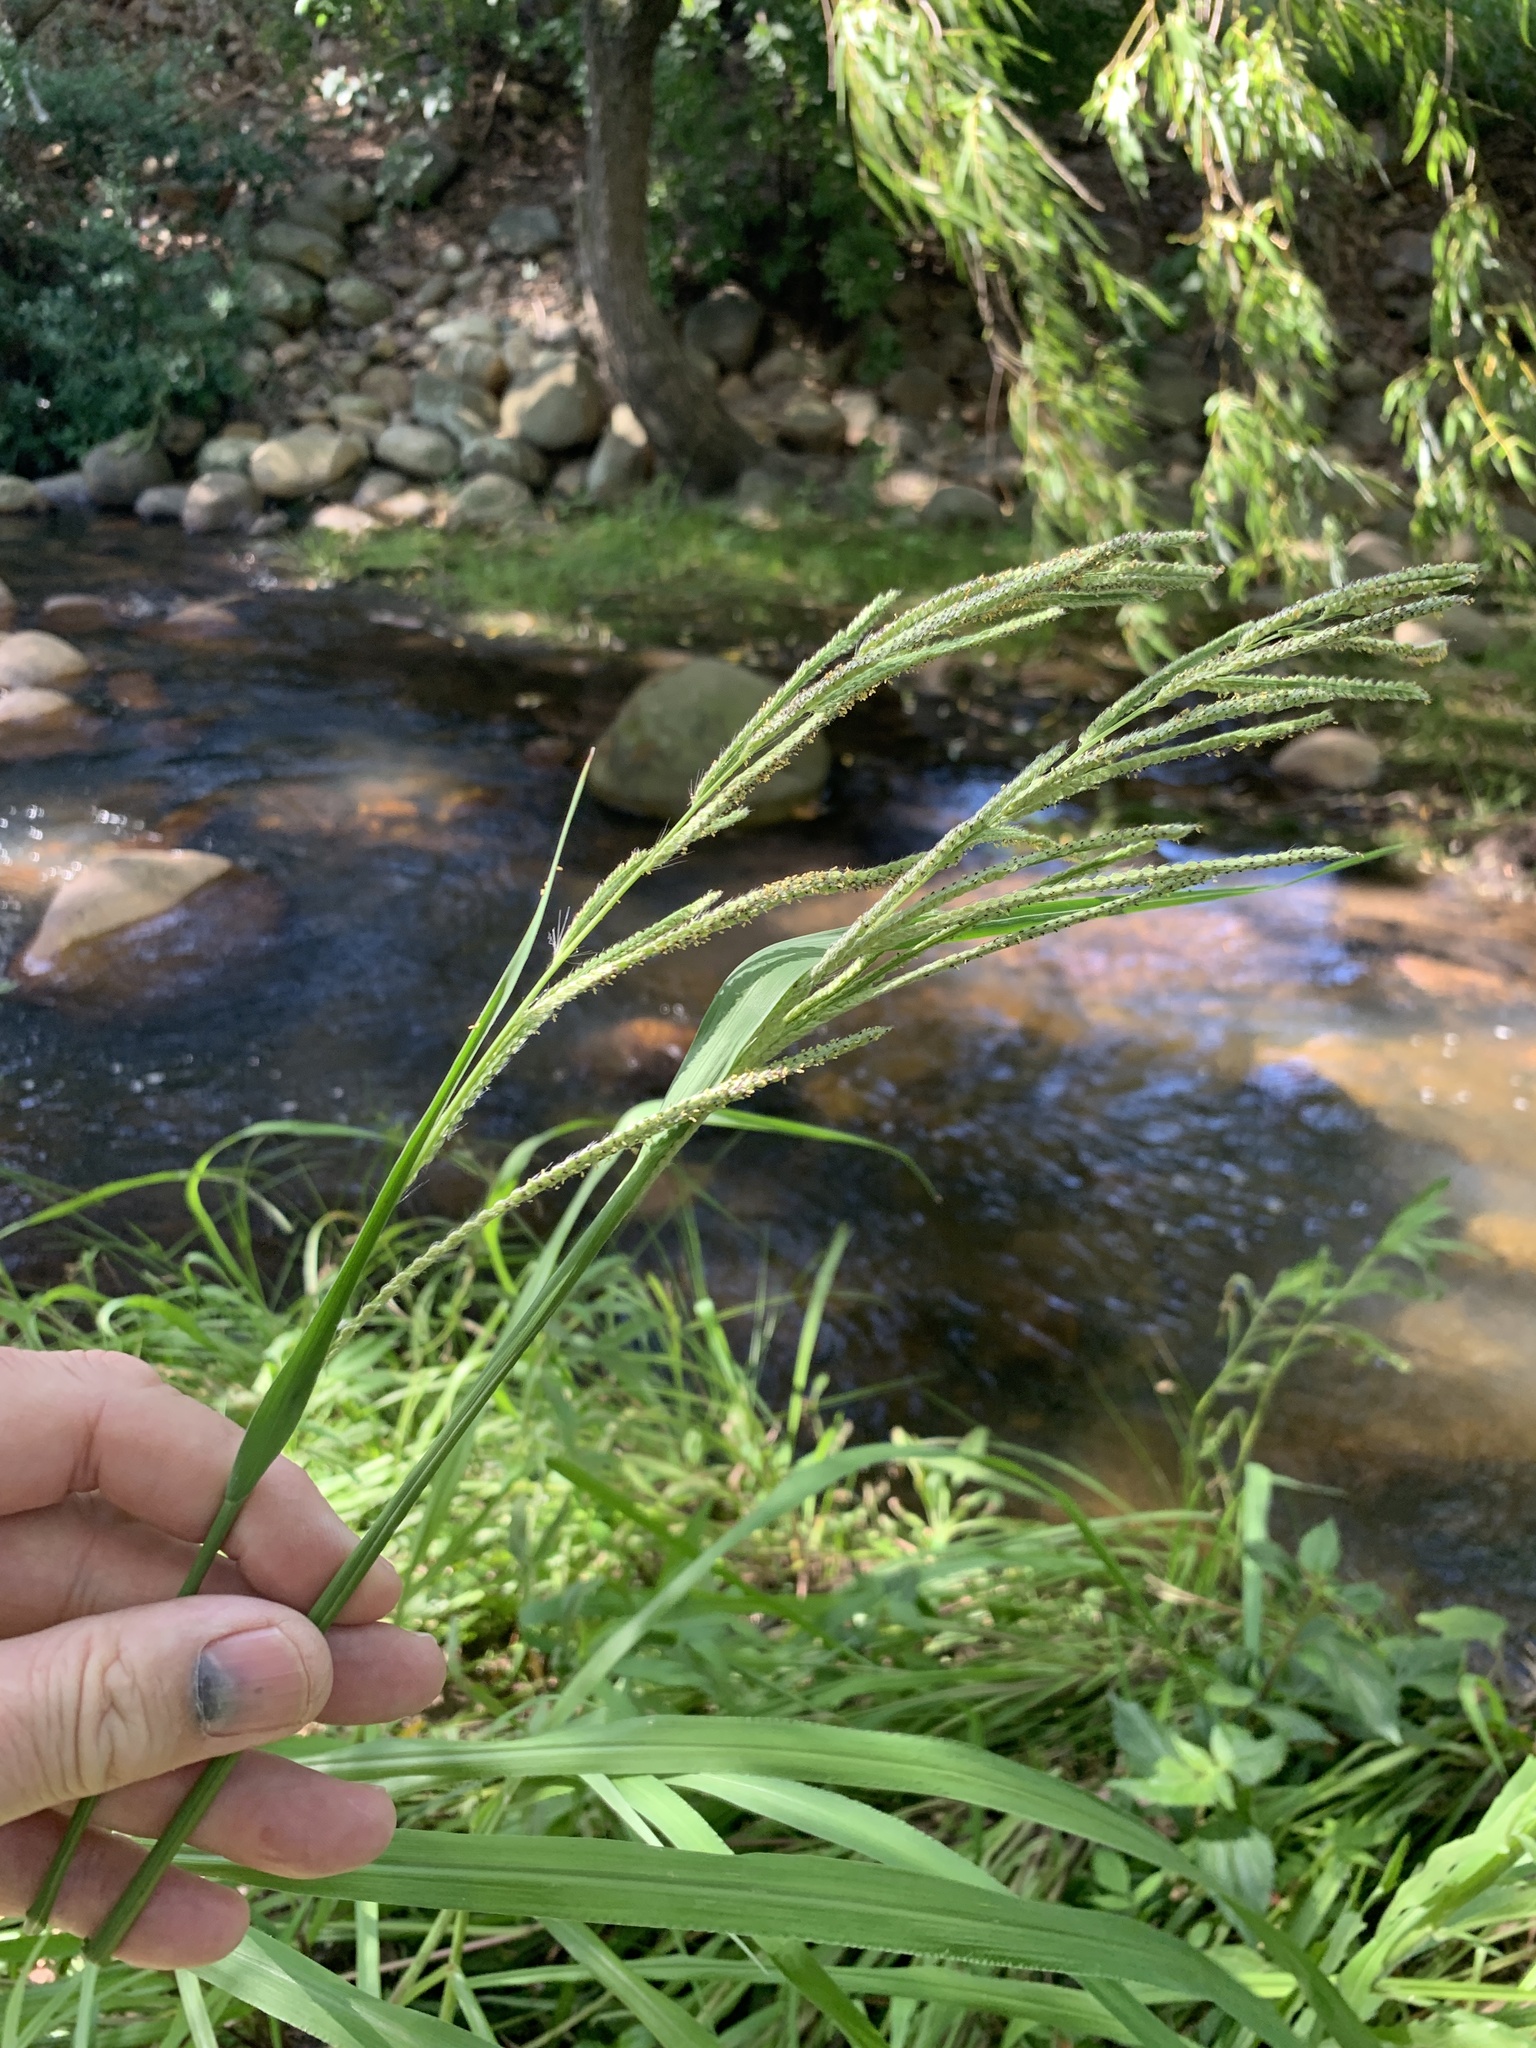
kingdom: Plantae
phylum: Tracheophyta
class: Liliopsida
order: Poales
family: Poaceae
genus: Paspalum
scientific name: Paspalum urvillei
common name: Vasey's grass
